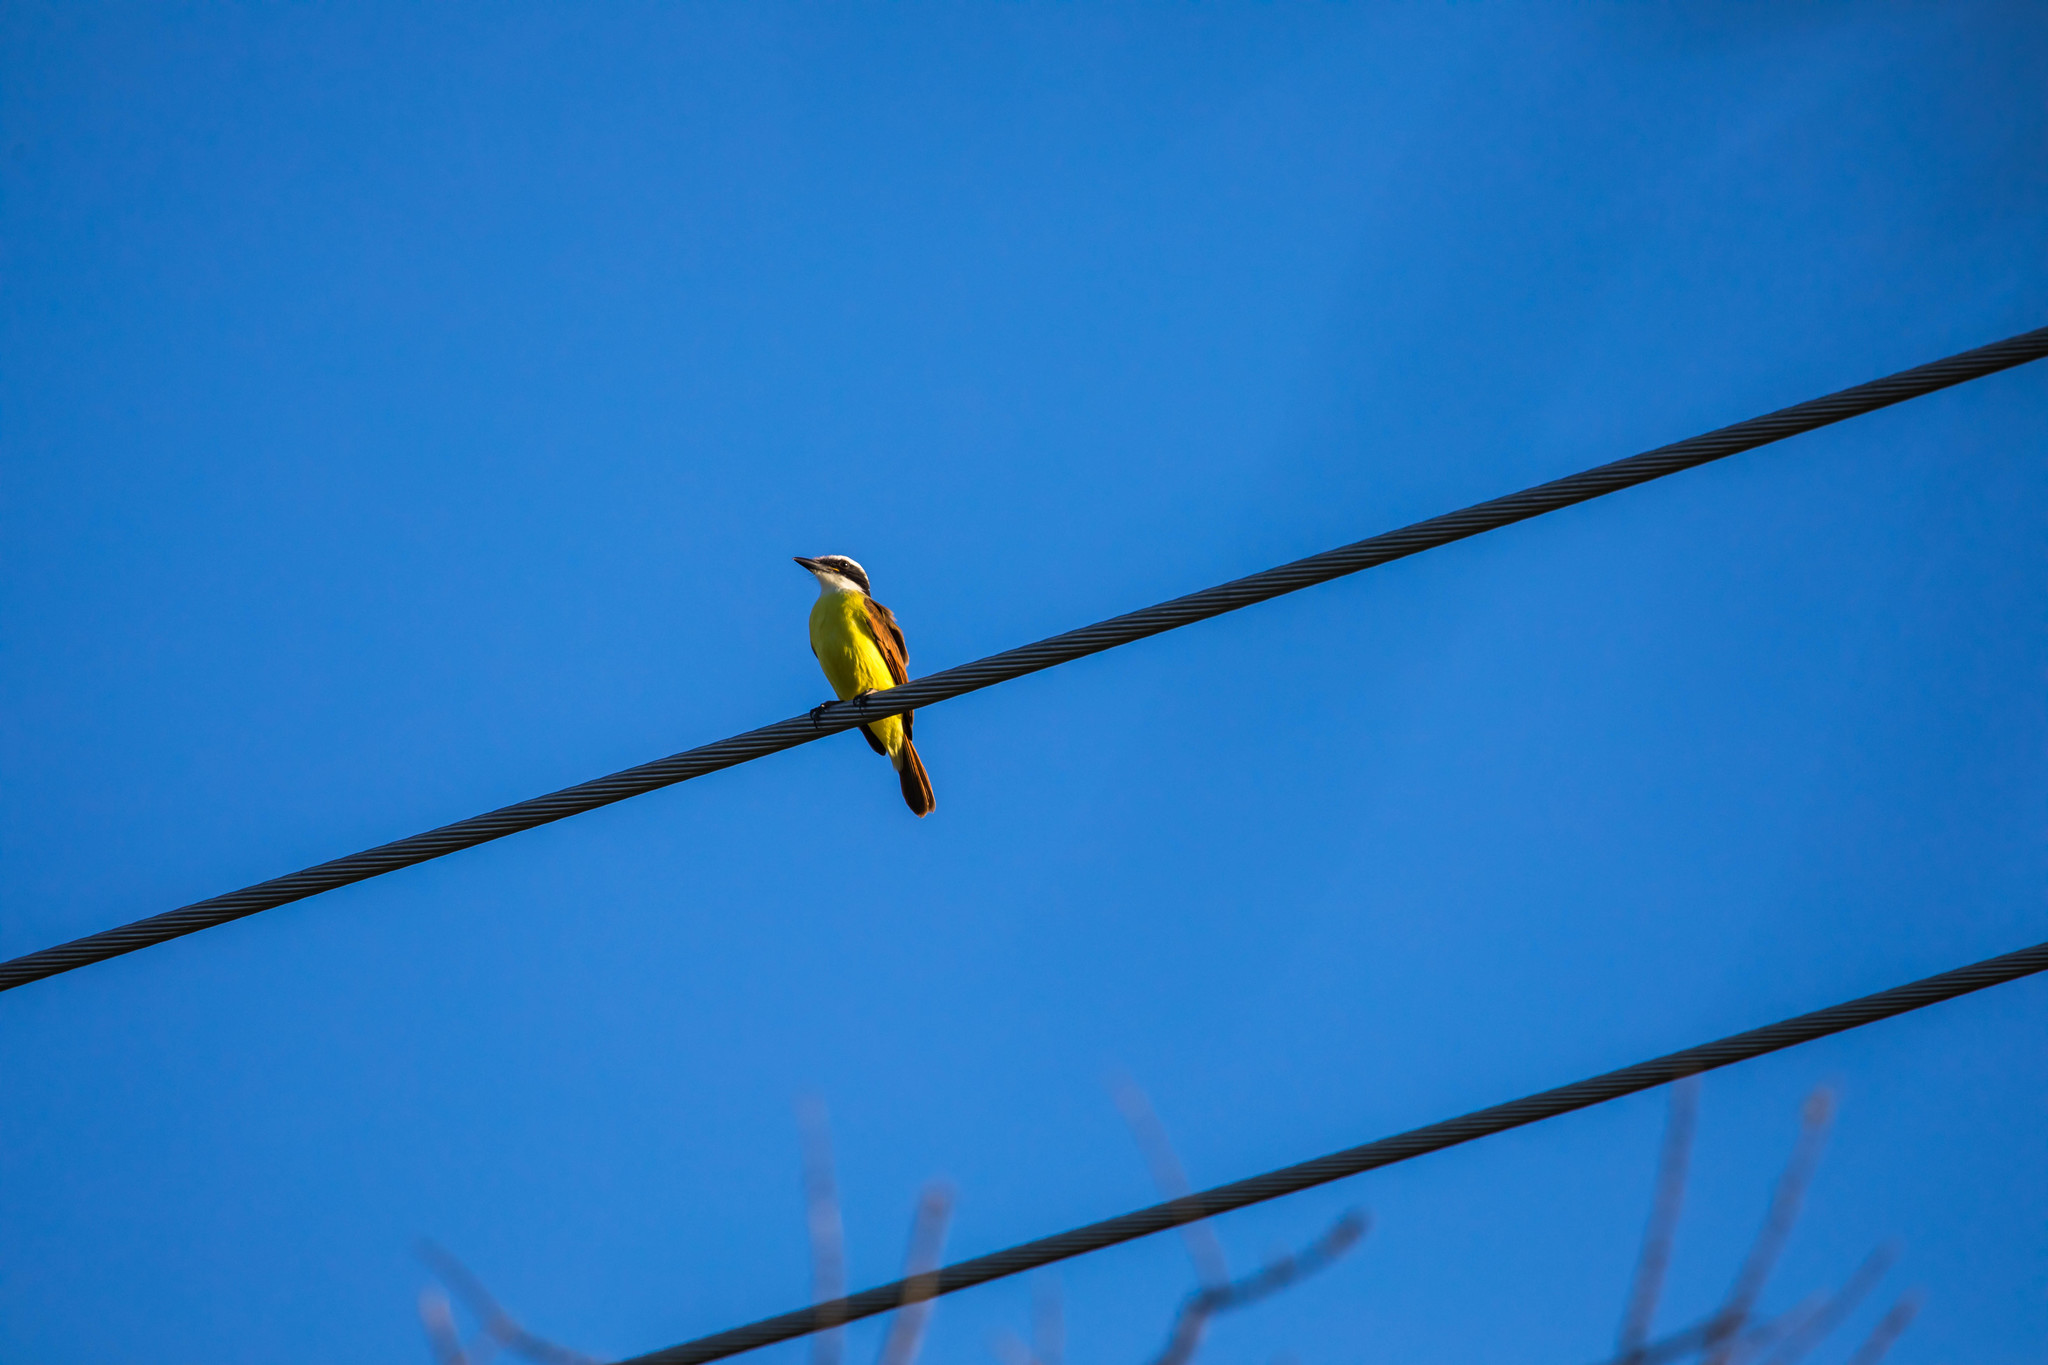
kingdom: Animalia
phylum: Chordata
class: Aves
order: Passeriformes
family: Tyrannidae
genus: Pitangus
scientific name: Pitangus sulphuratus
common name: Great kiskadee
